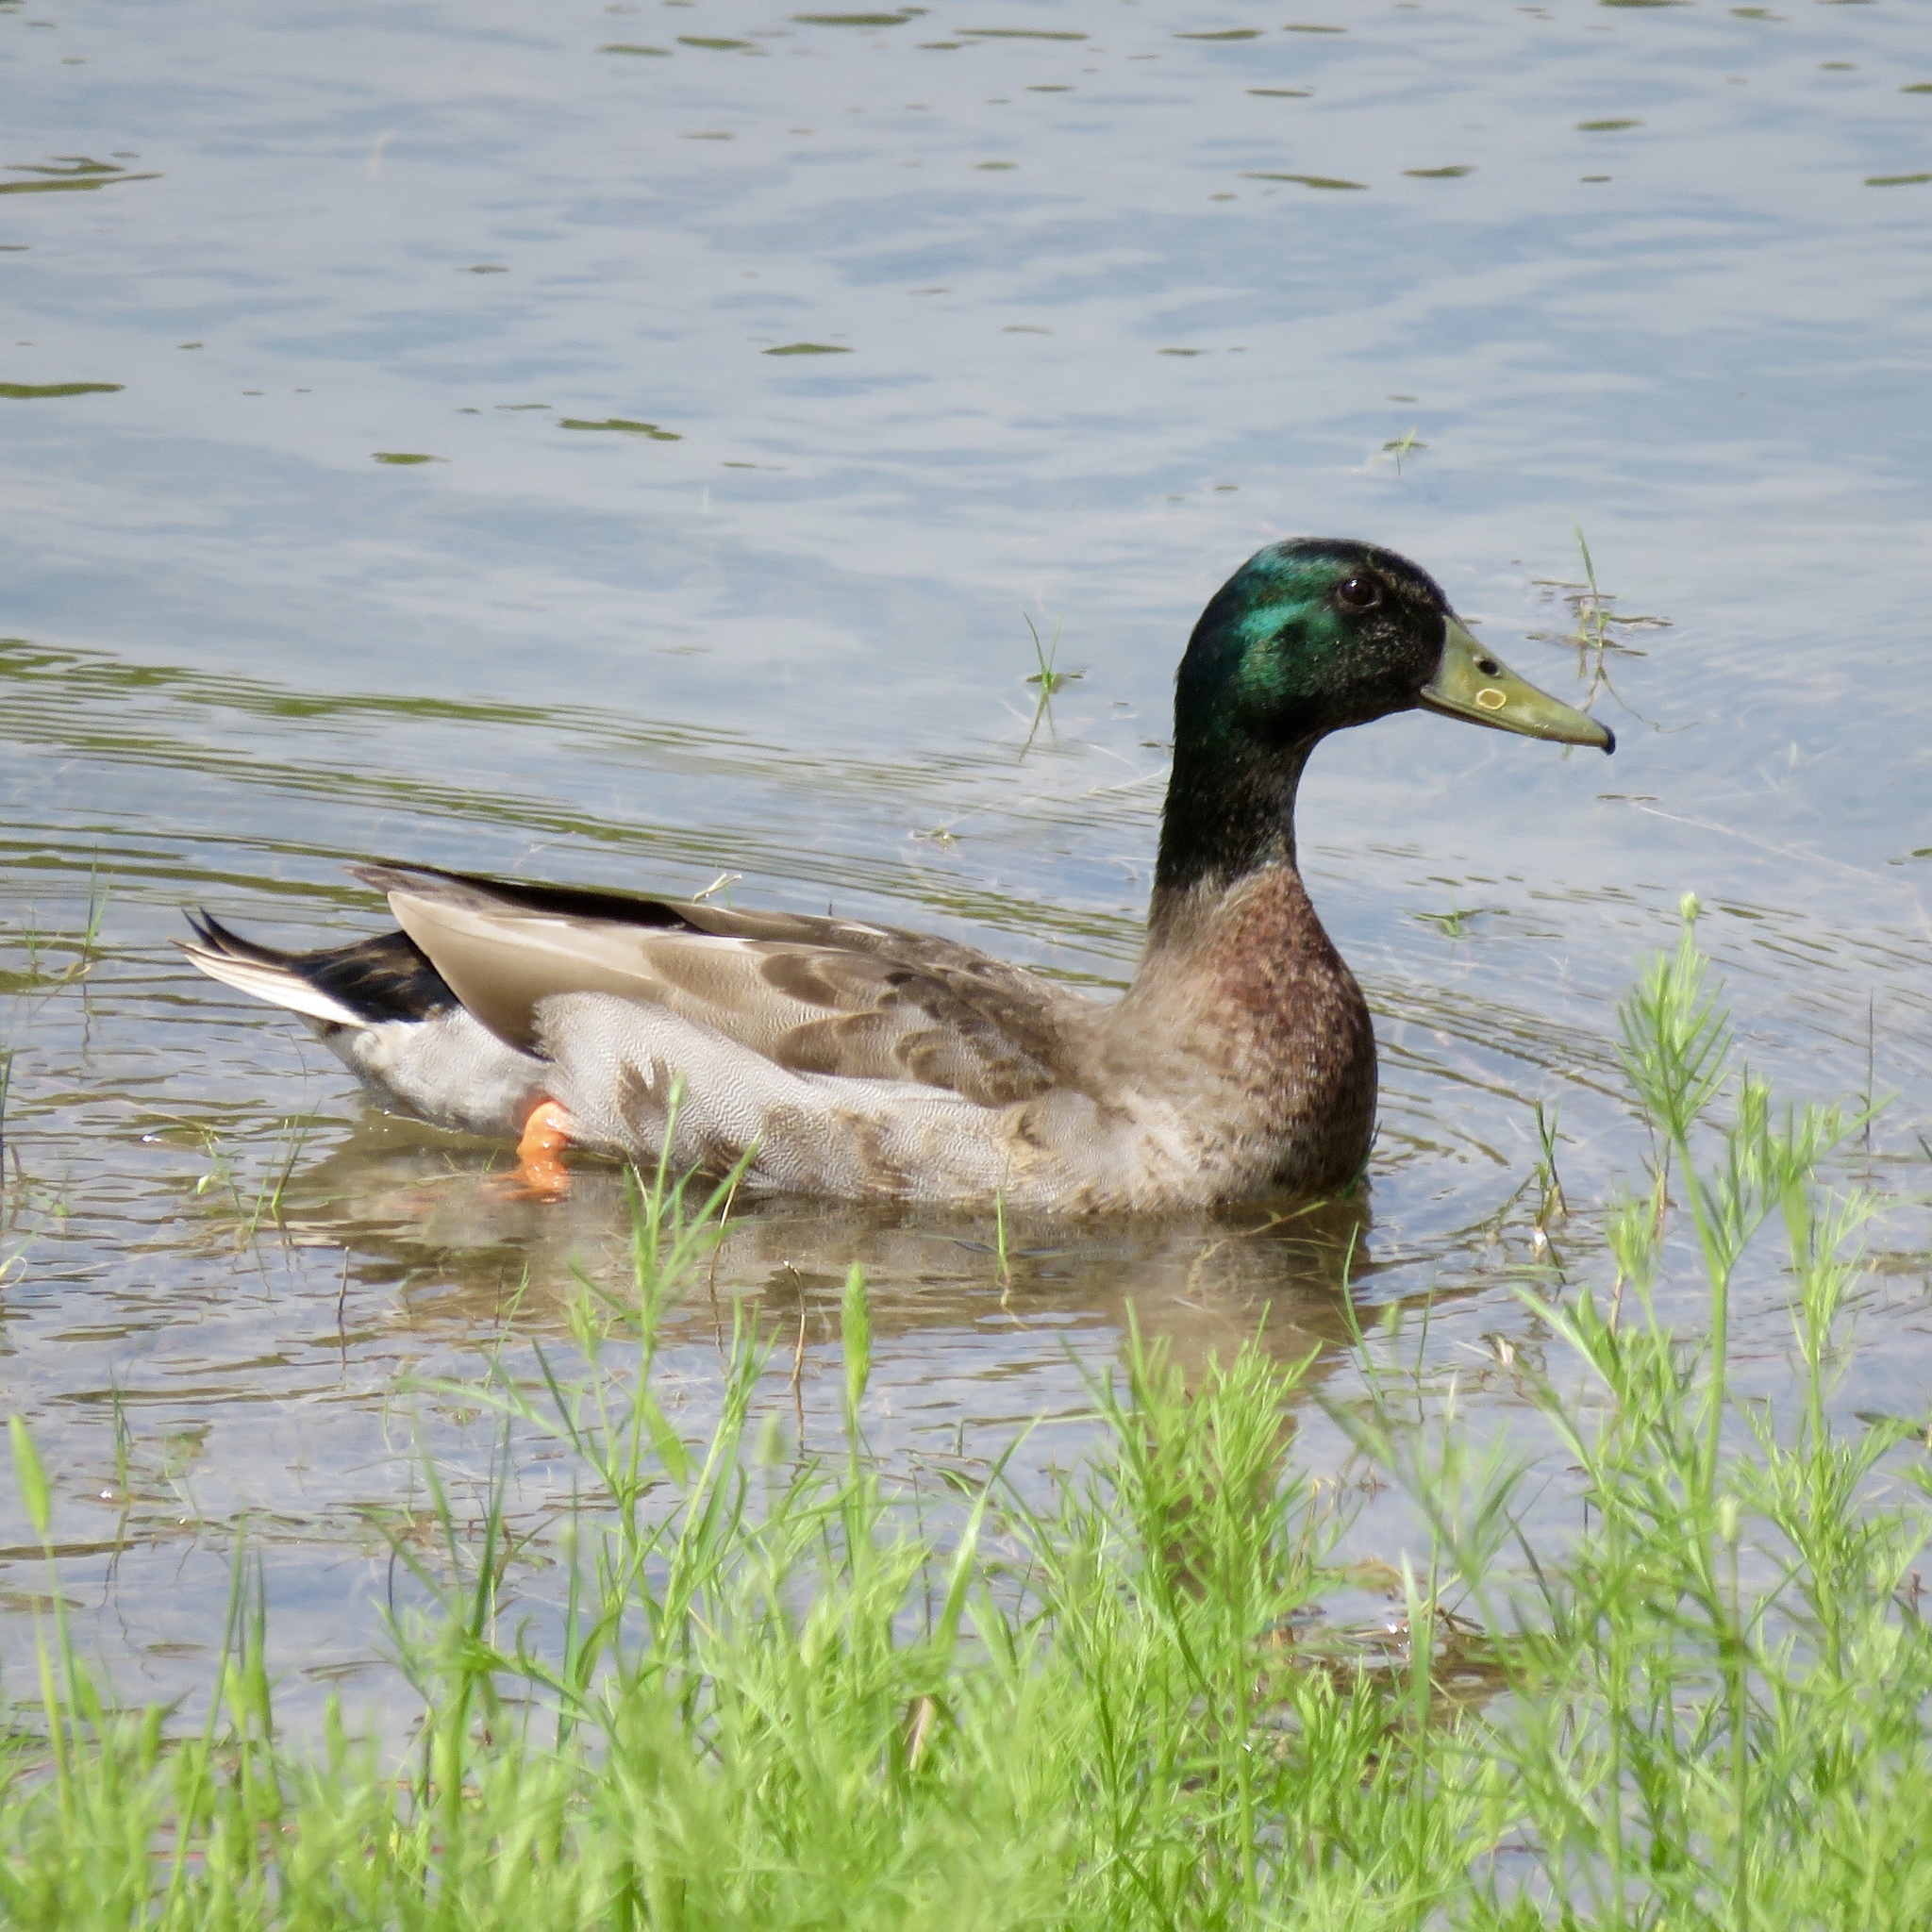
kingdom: Animalia
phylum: Chordata
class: Aves
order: Anseriformes
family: Anatidae
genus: Anas
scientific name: Anas platyrhynchos
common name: Mallard
